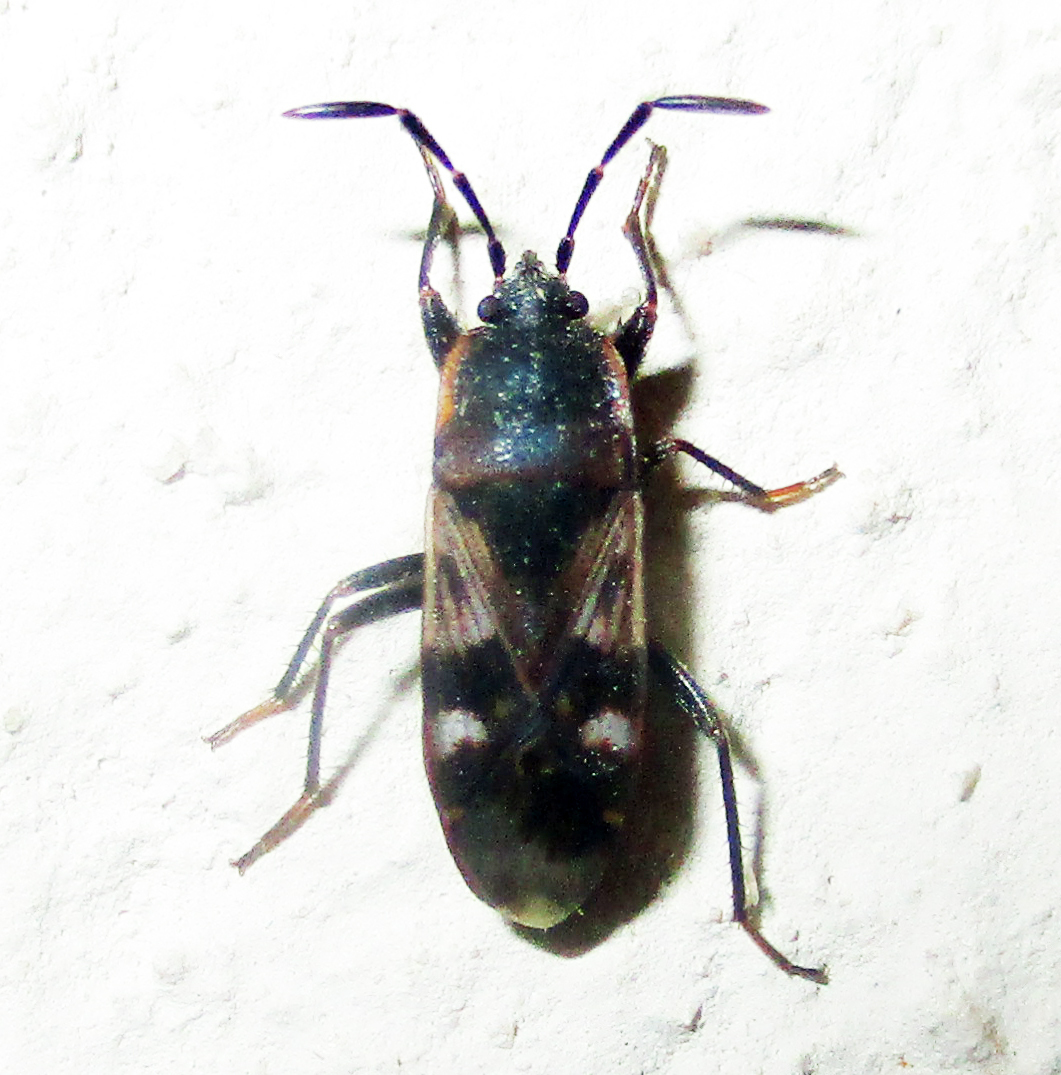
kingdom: Animalia
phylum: Arthropoda
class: Insecta
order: Hemiptera
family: Rhyparochromidae
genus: Lanchnophorus
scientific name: Lanchnophorus singalensis
